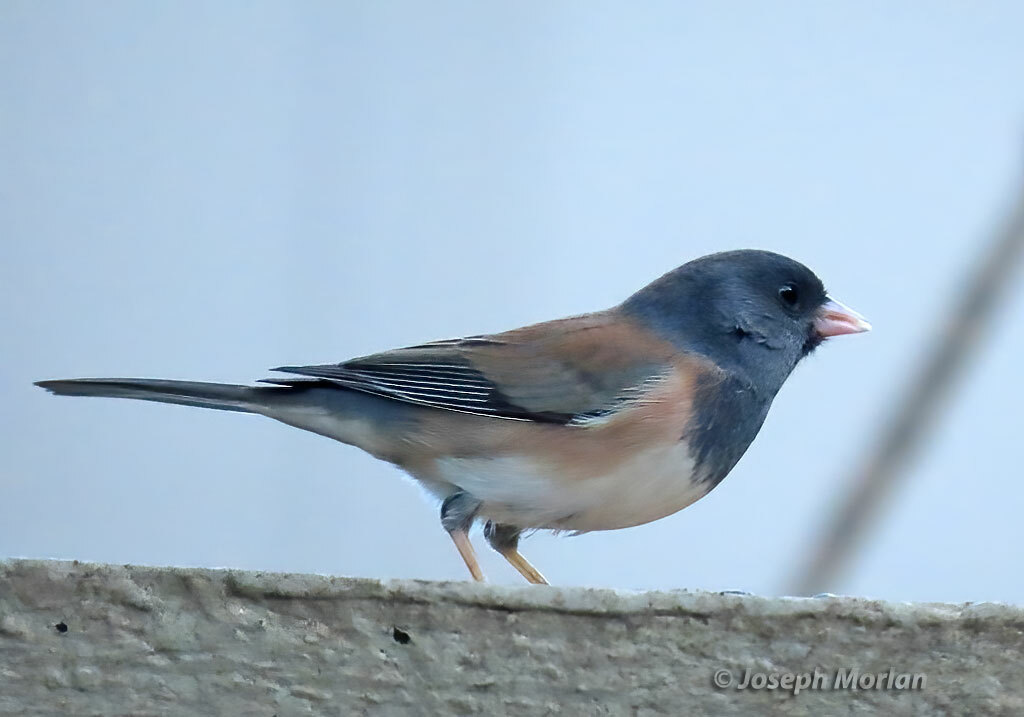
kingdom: Animalia
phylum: Chordata
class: Aves
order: Passeriformes
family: Passerellidae
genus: Junco
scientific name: Junco hyemalis
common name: Dark-eyed junco
